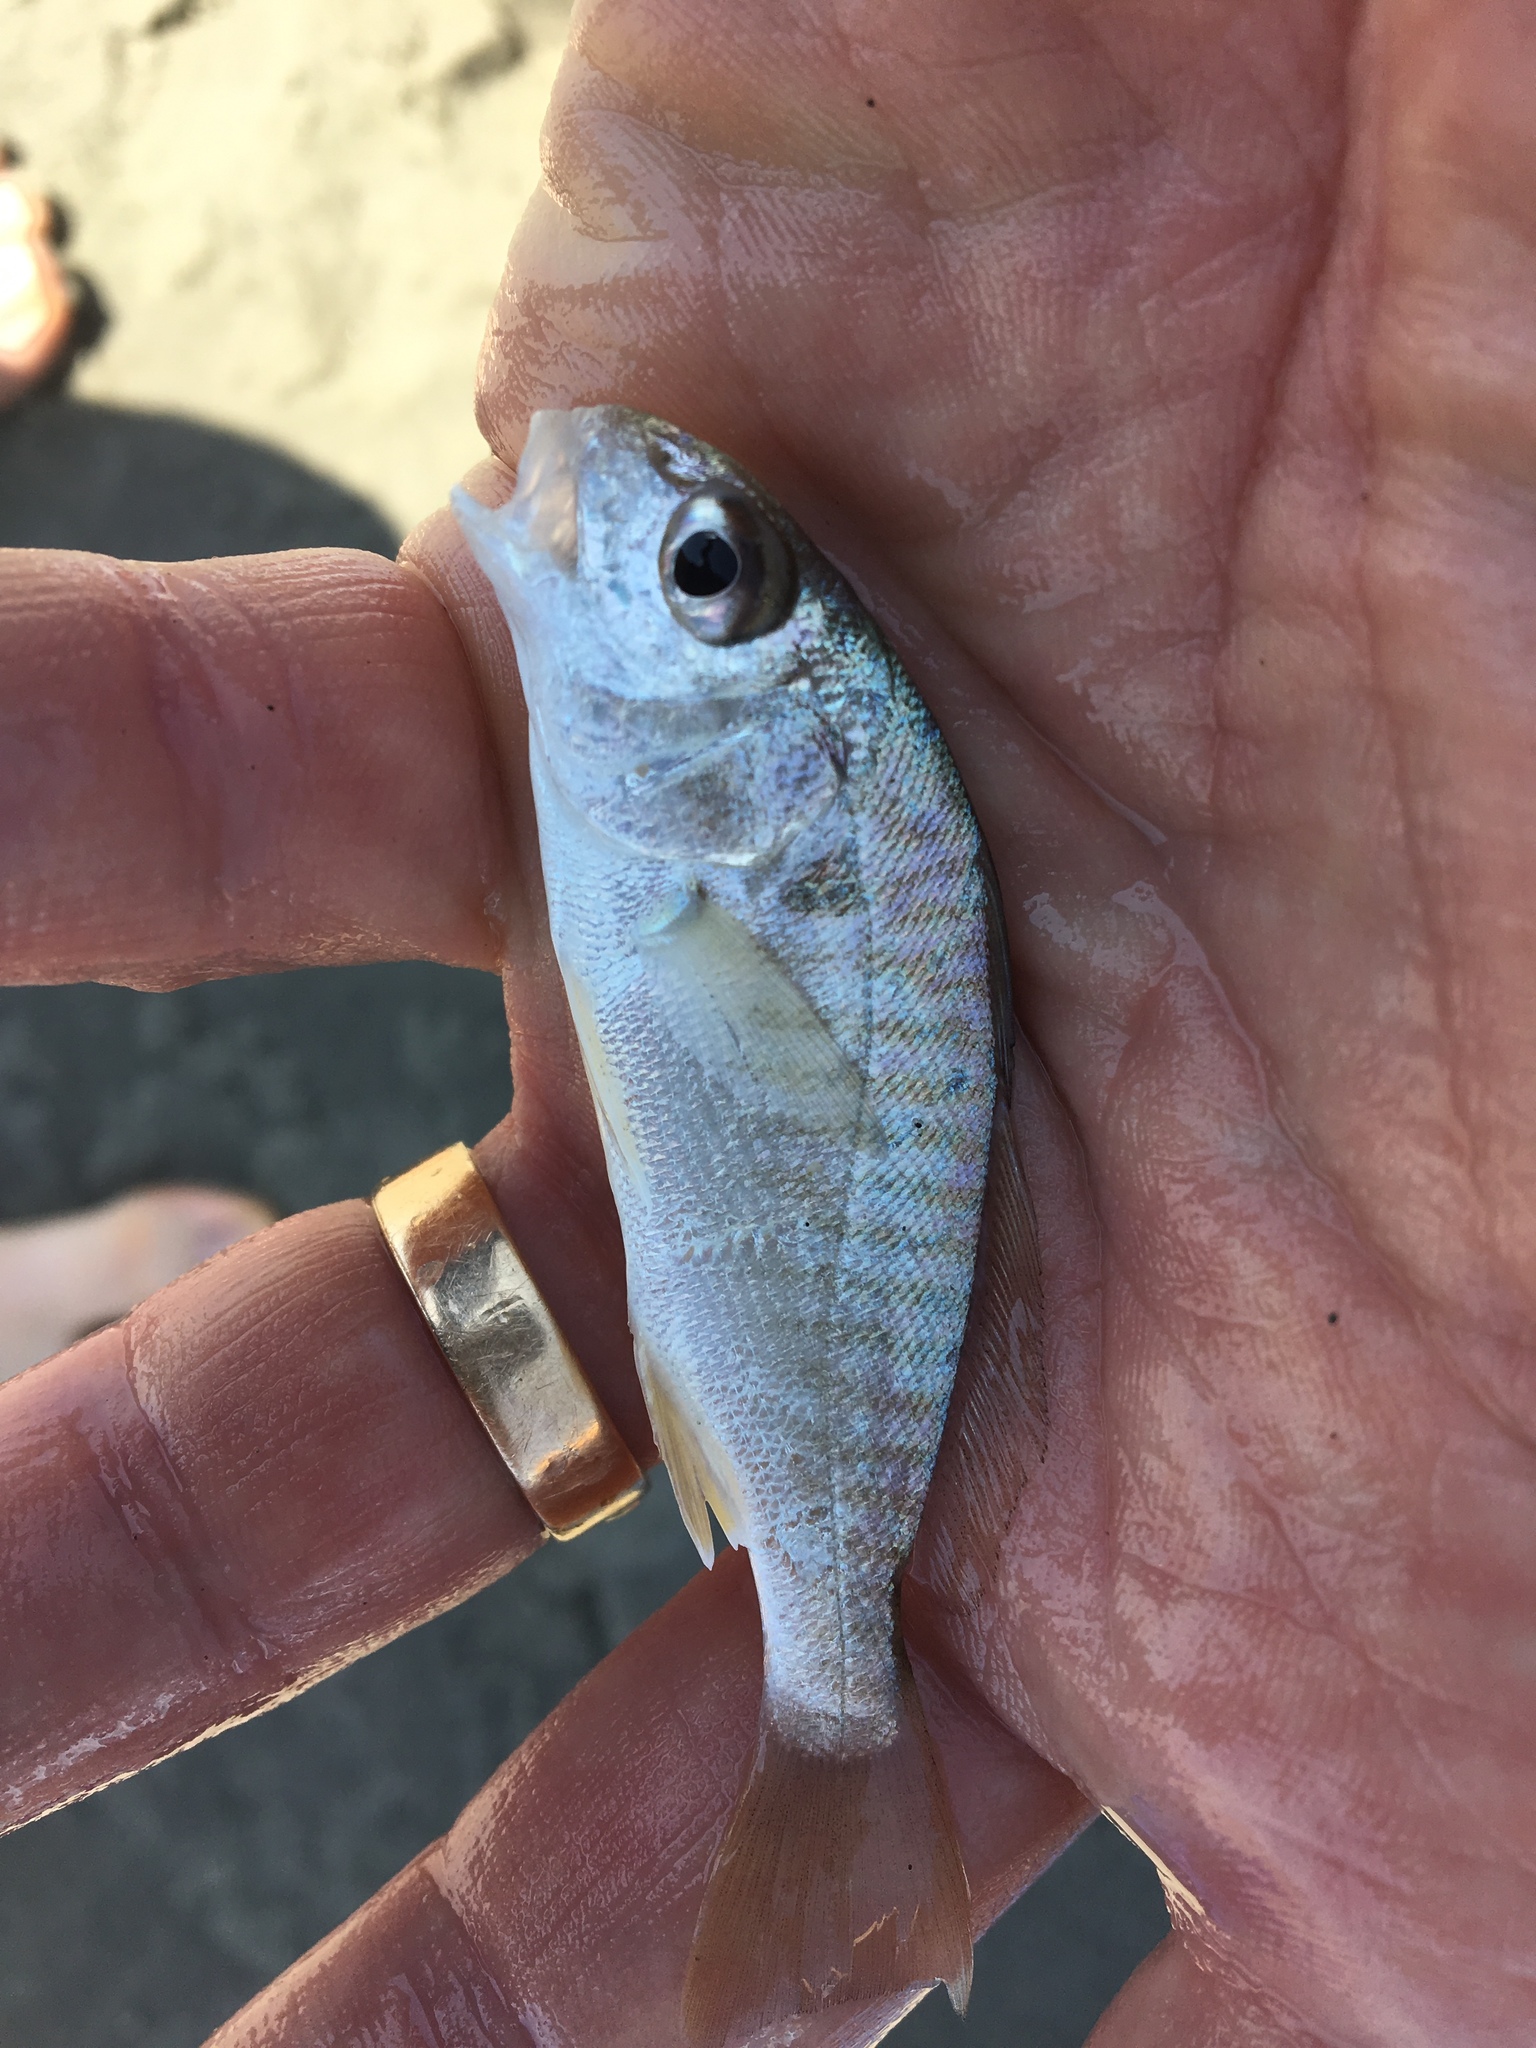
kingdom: Animalia
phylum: Chordata
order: Perciformes
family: Sciaenidae
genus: Leiostomus
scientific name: Leiostomus xanthurus
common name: Spot
